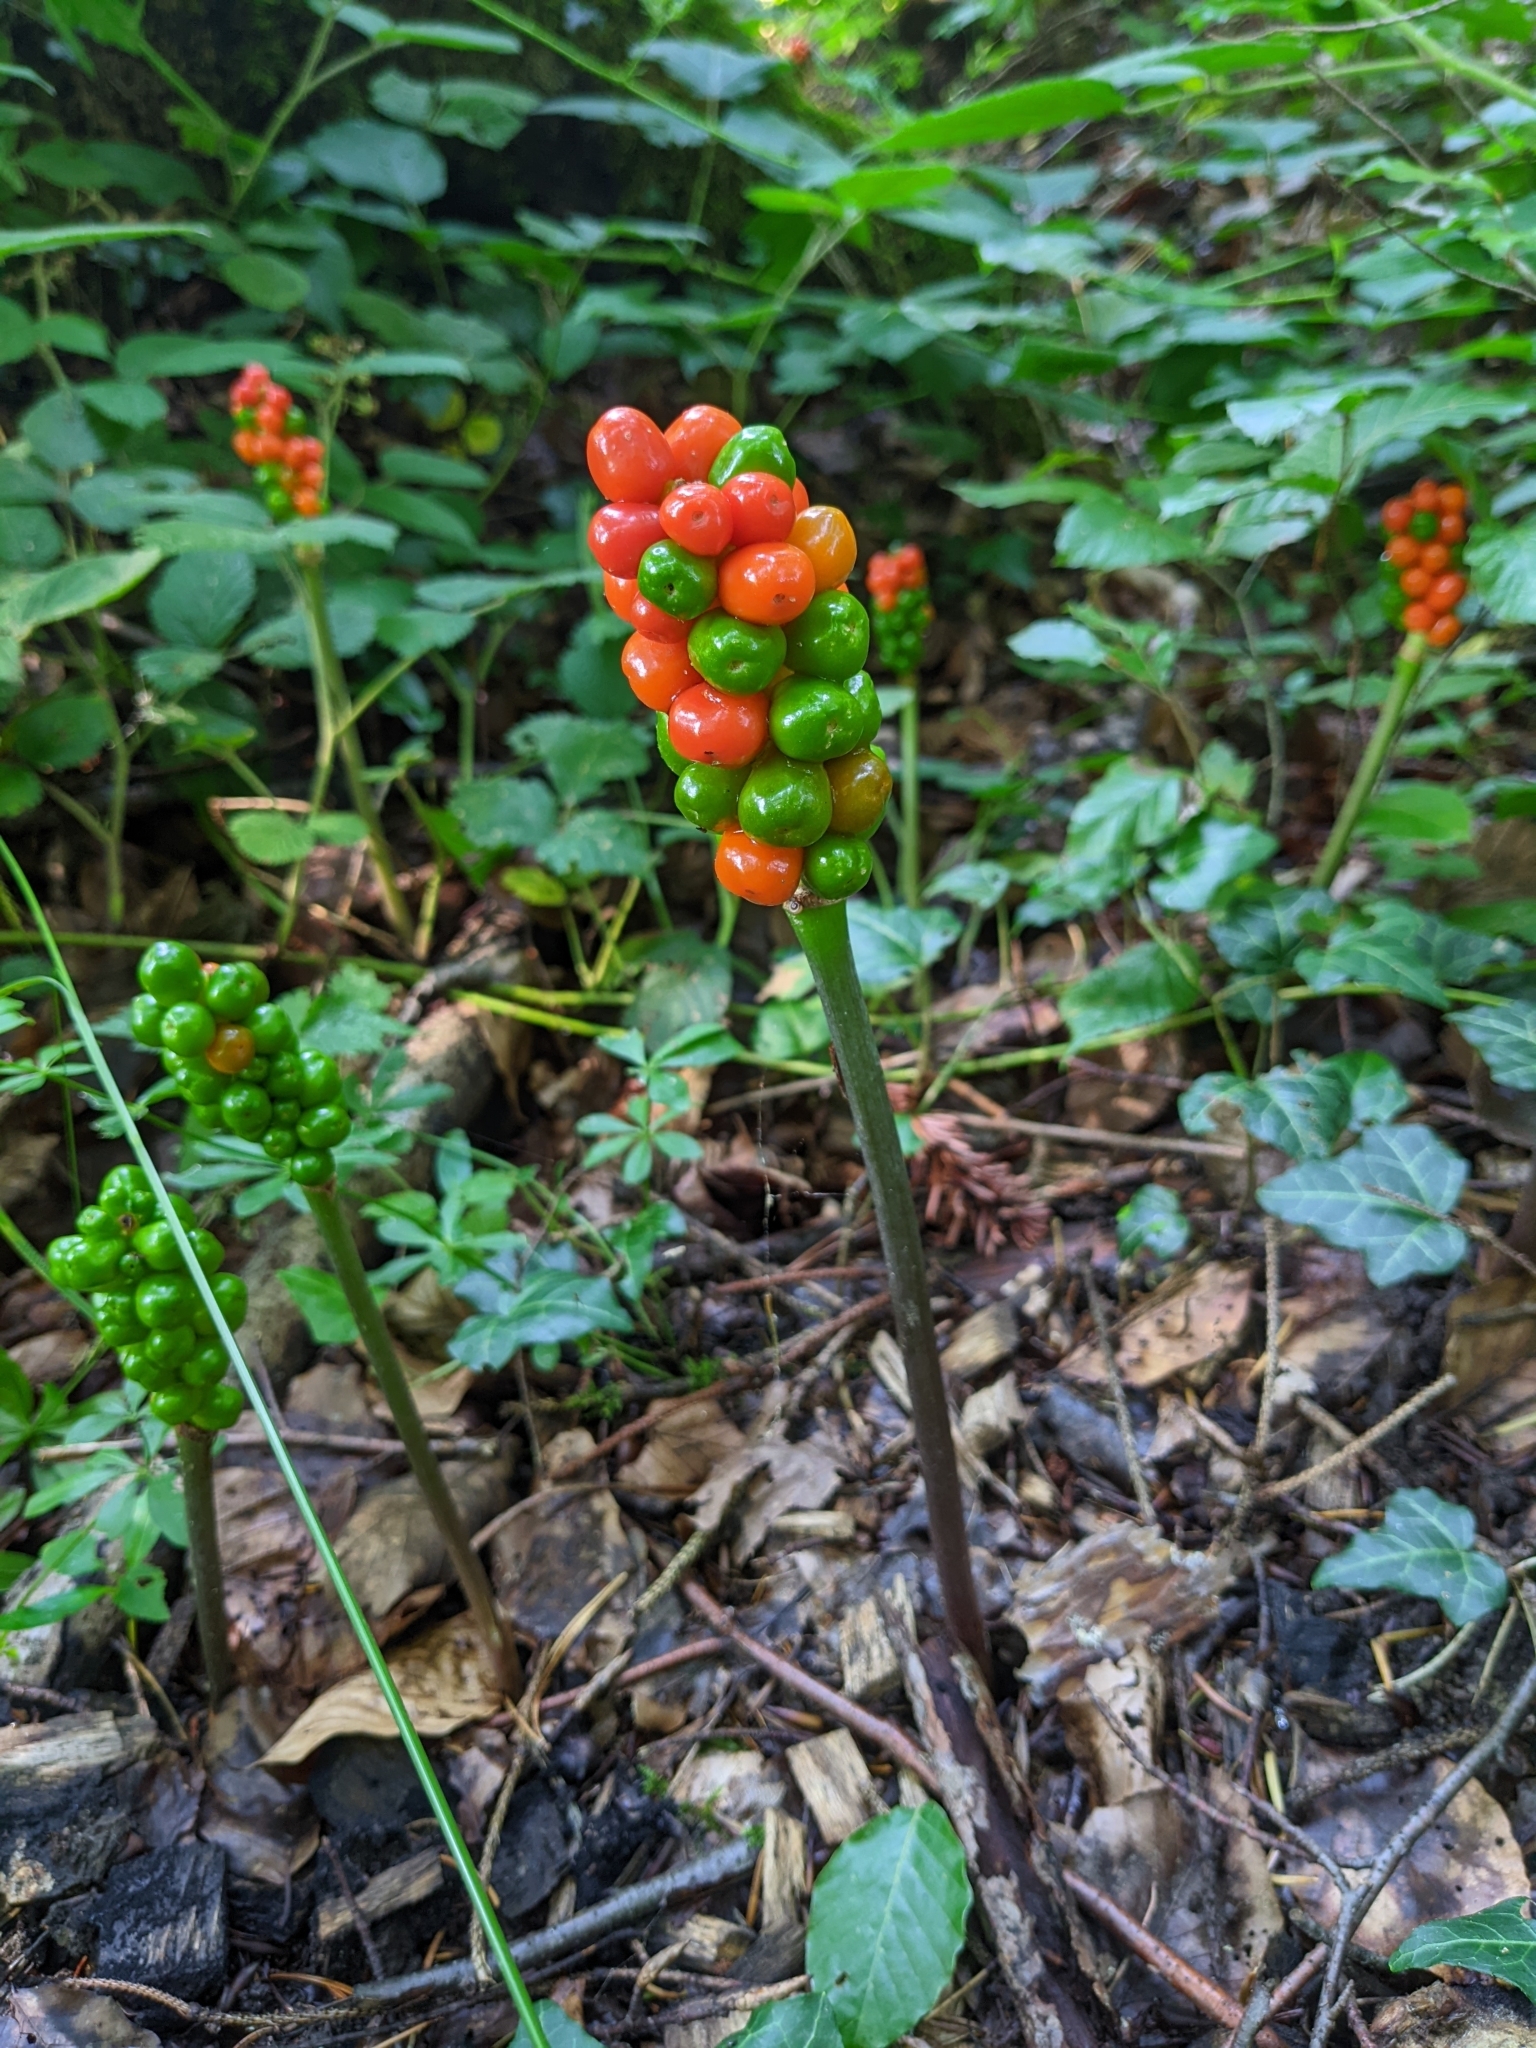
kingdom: Plantae
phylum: Tracheophyta
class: Liliopsida
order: Alismatales
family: Araceae
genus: Arum
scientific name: Arum maculatum
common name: Lords-and-ladies
